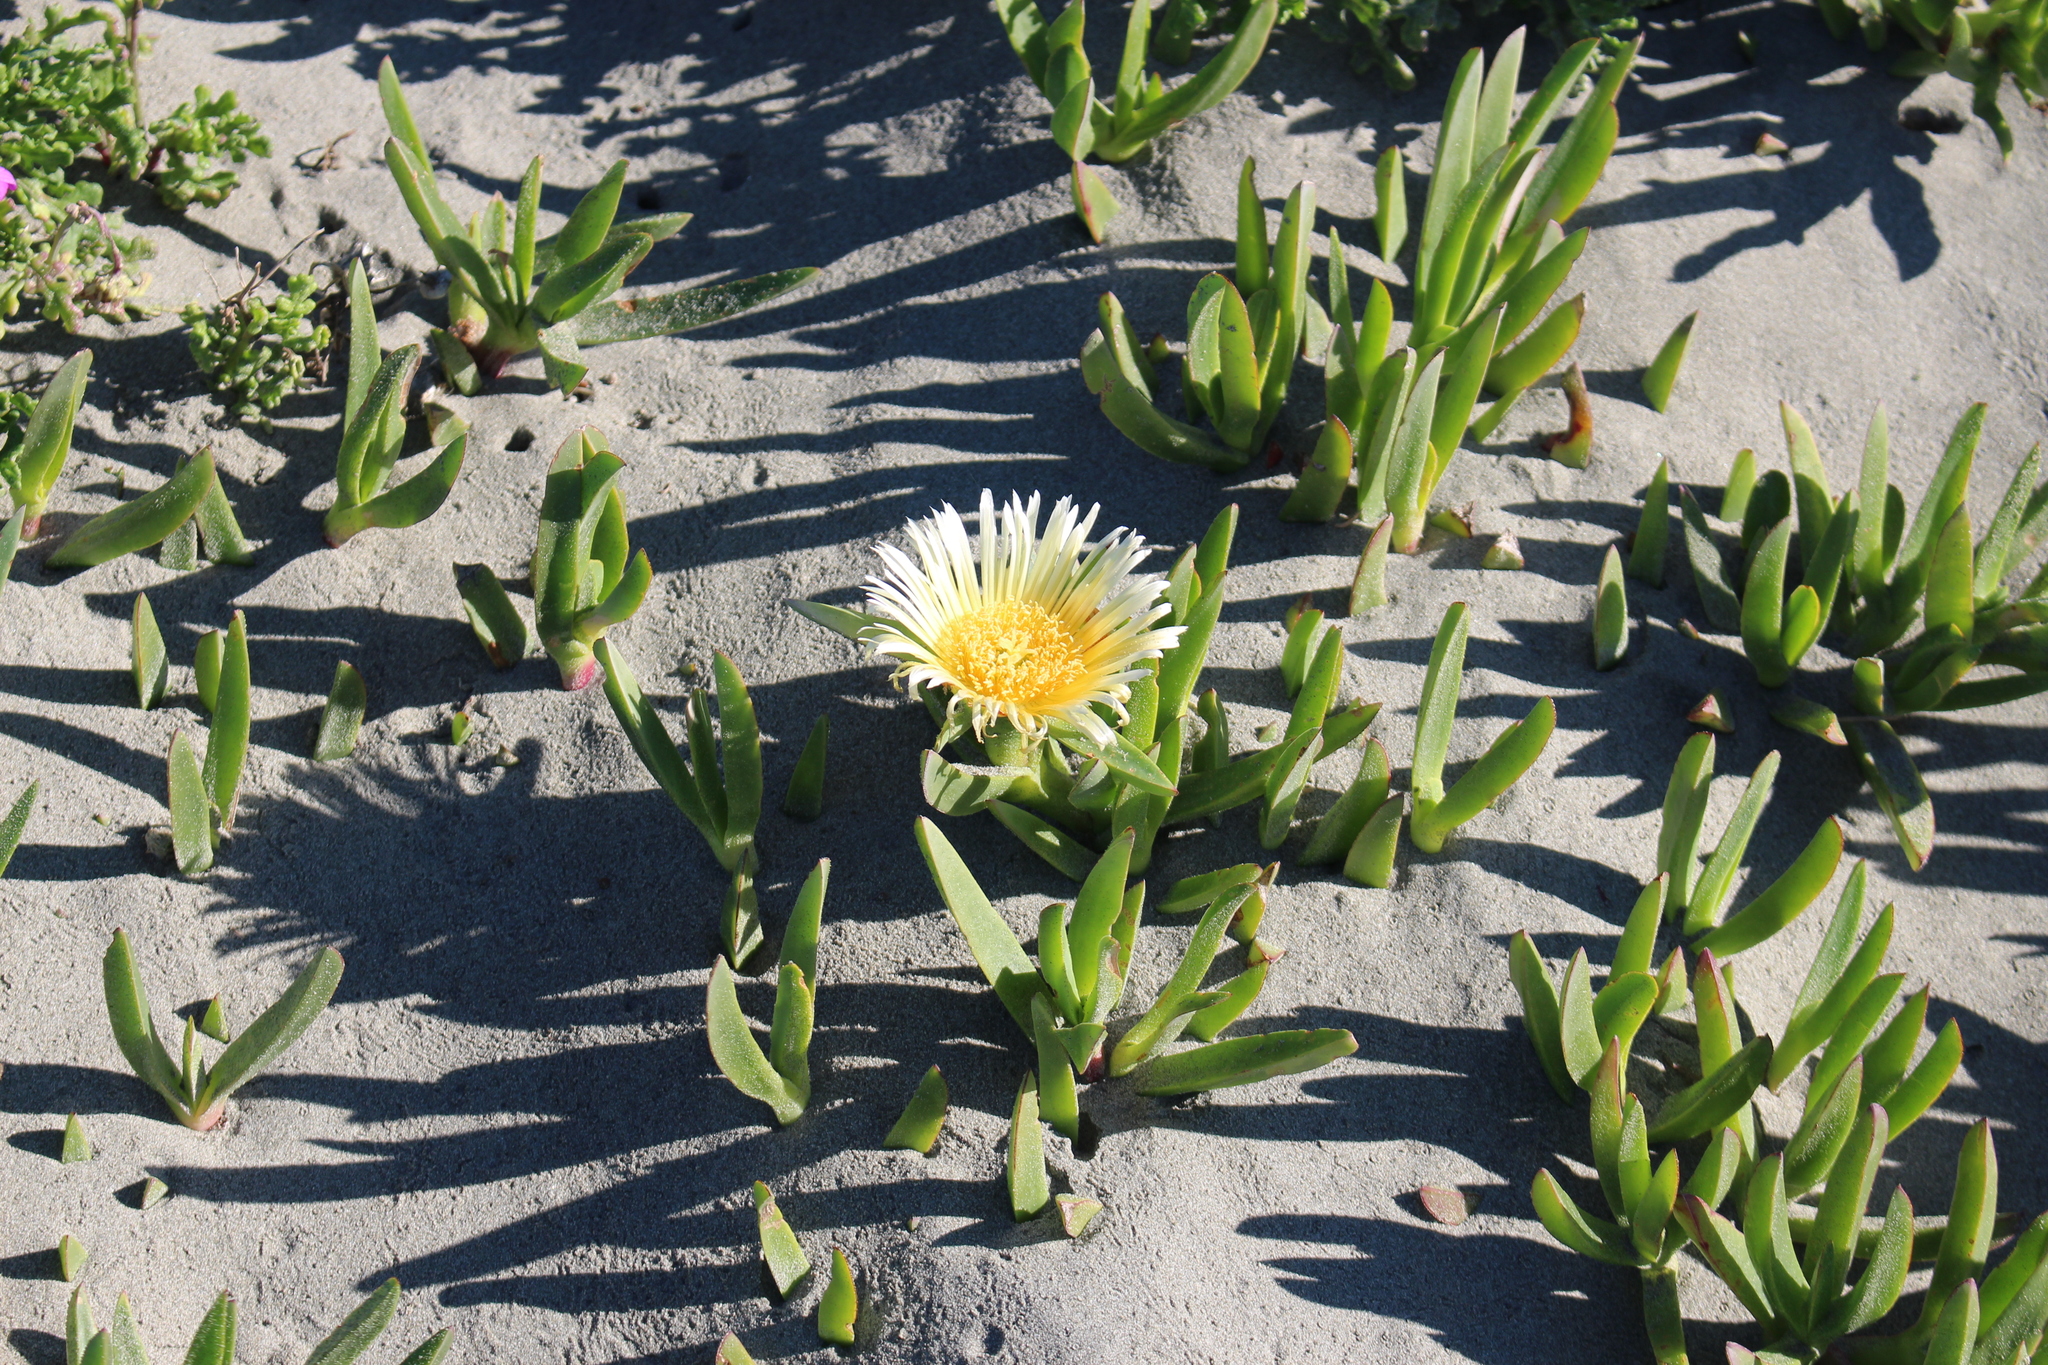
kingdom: Plantae
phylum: Tracheophyta
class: Magnoliopsida
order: Caryophyllales
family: Aizoaceae
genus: Carpobrotus
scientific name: Carpobrotus edulis
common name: Hottentot-fig
